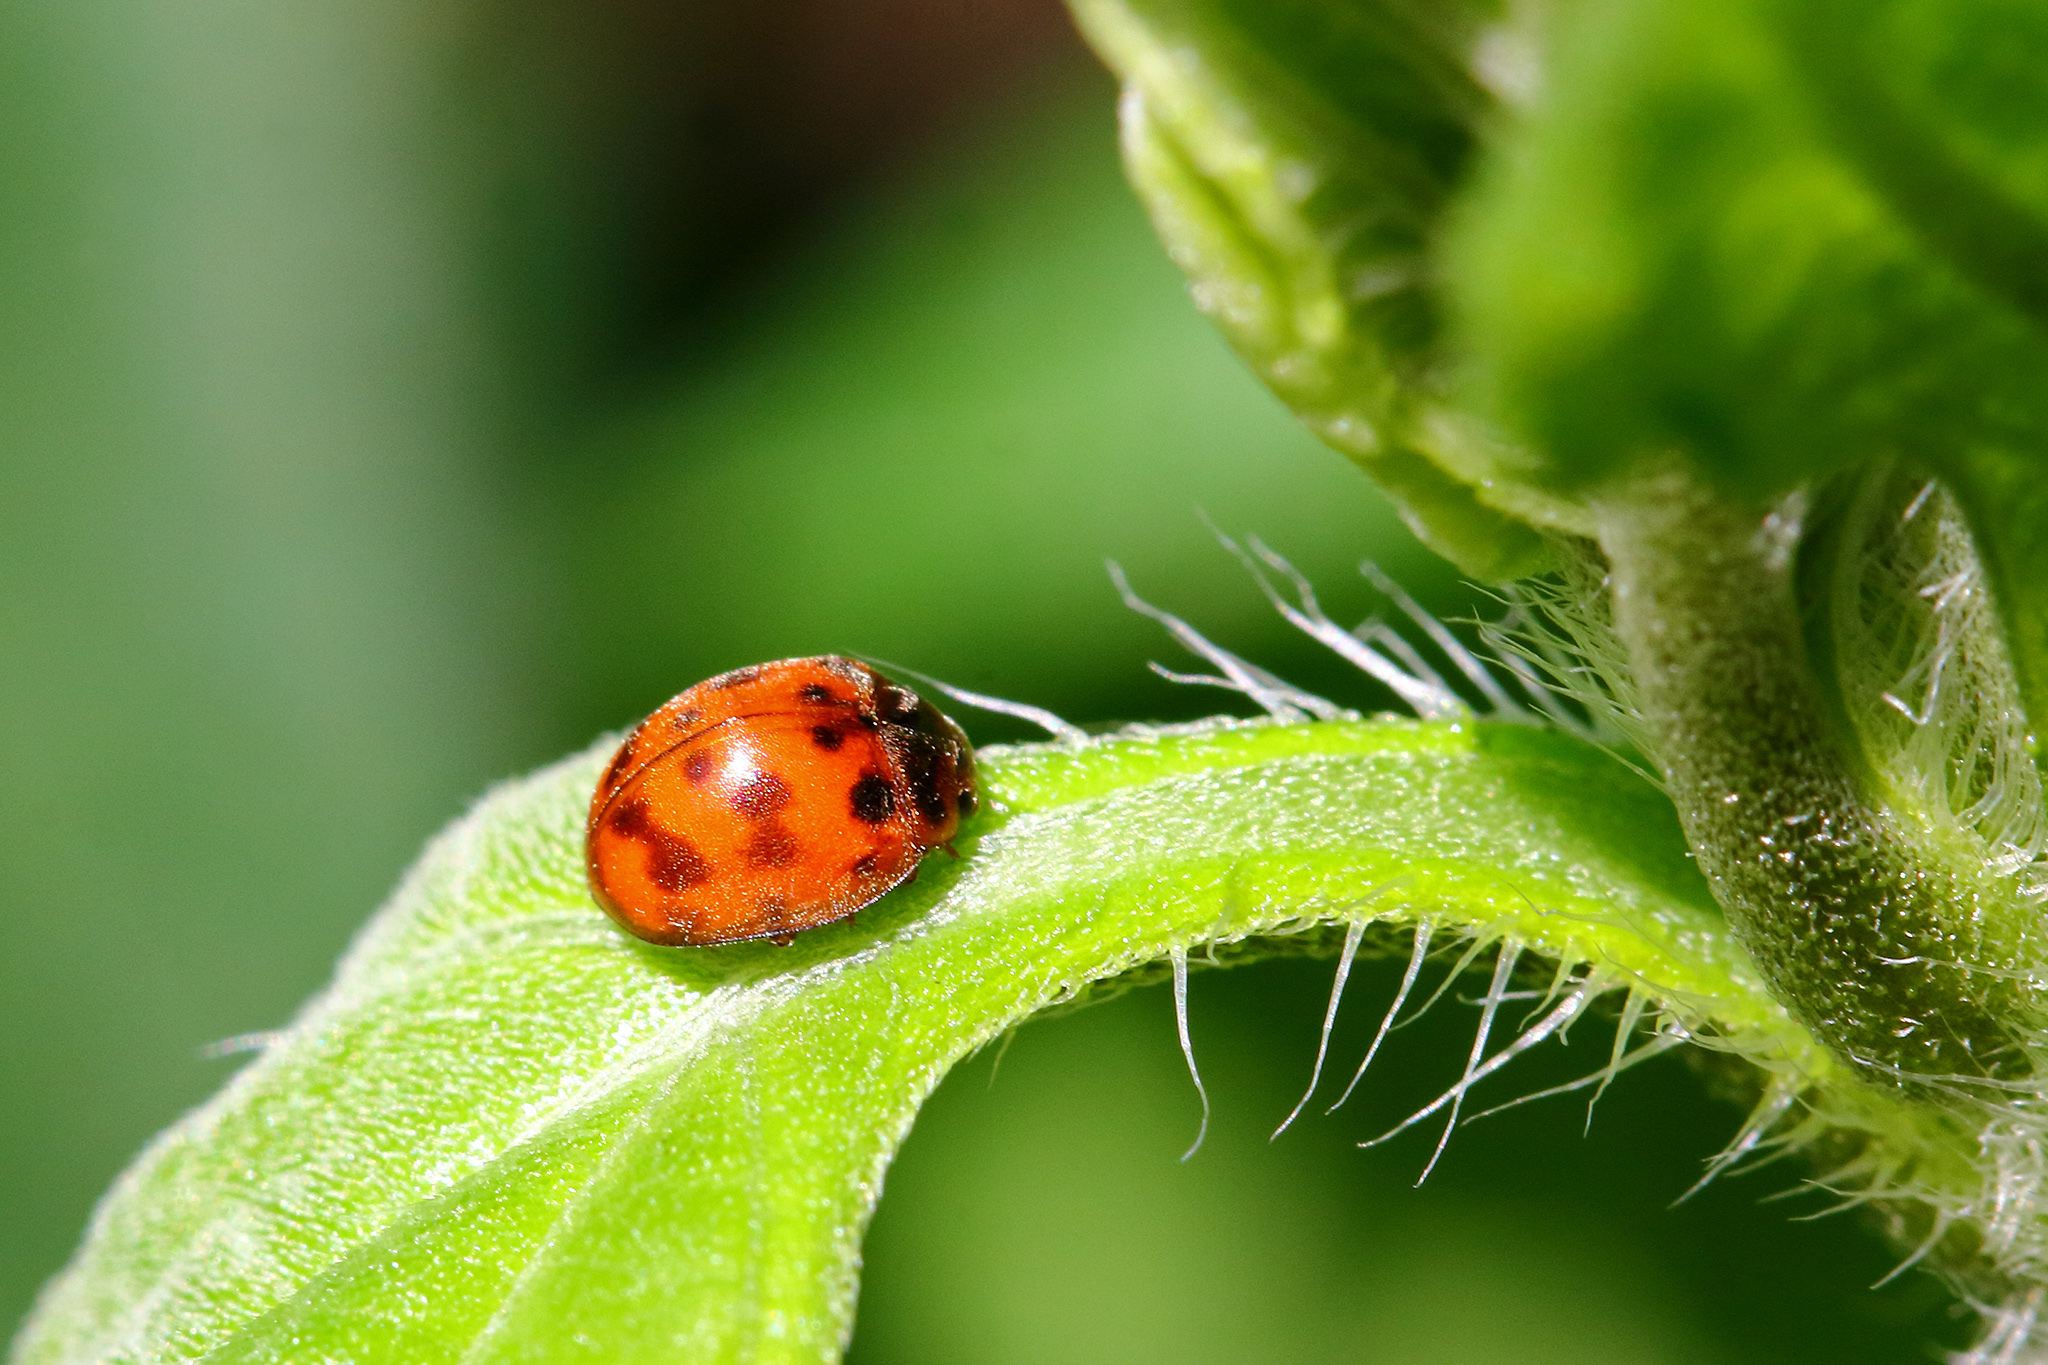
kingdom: Animalia
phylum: Arthropoda
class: Insecta
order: Coleoptera
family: Coccinellidae
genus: Subcoccinella
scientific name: Subcoccinella vigintiquatuorpunctata
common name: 24-spot ladybird
